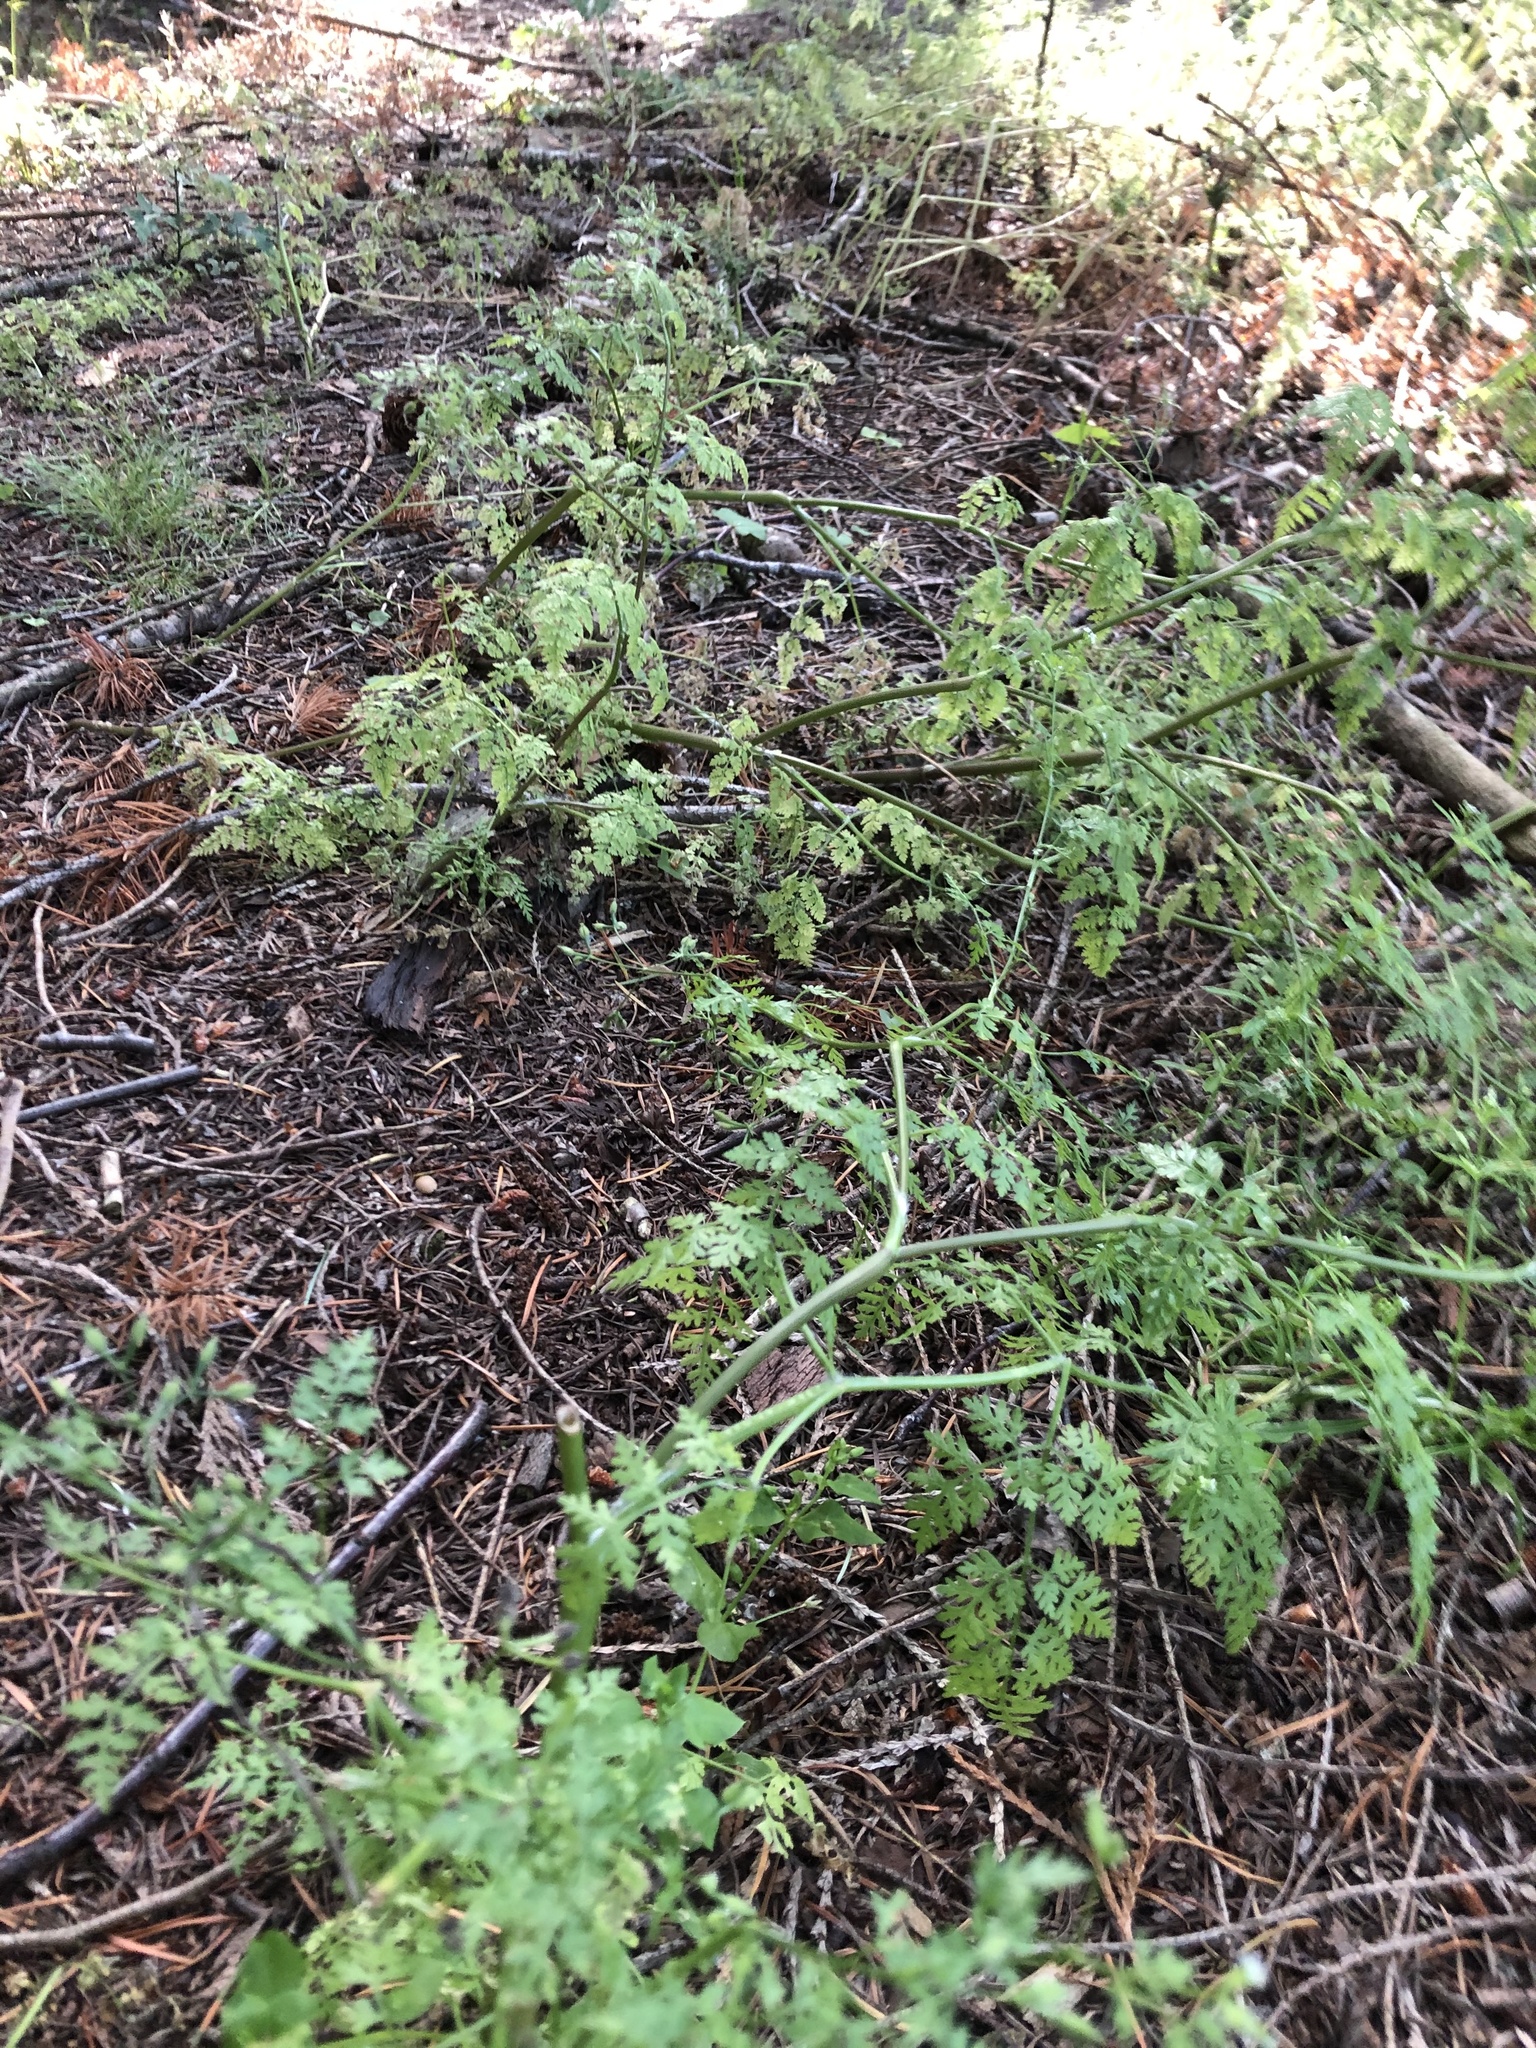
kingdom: Plantae
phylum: Tracheophyta
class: Magnoliopsida
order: Apiales
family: Apiaceae
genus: Anthriscus
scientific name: Anthriscus caucalis
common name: Bur chervil
